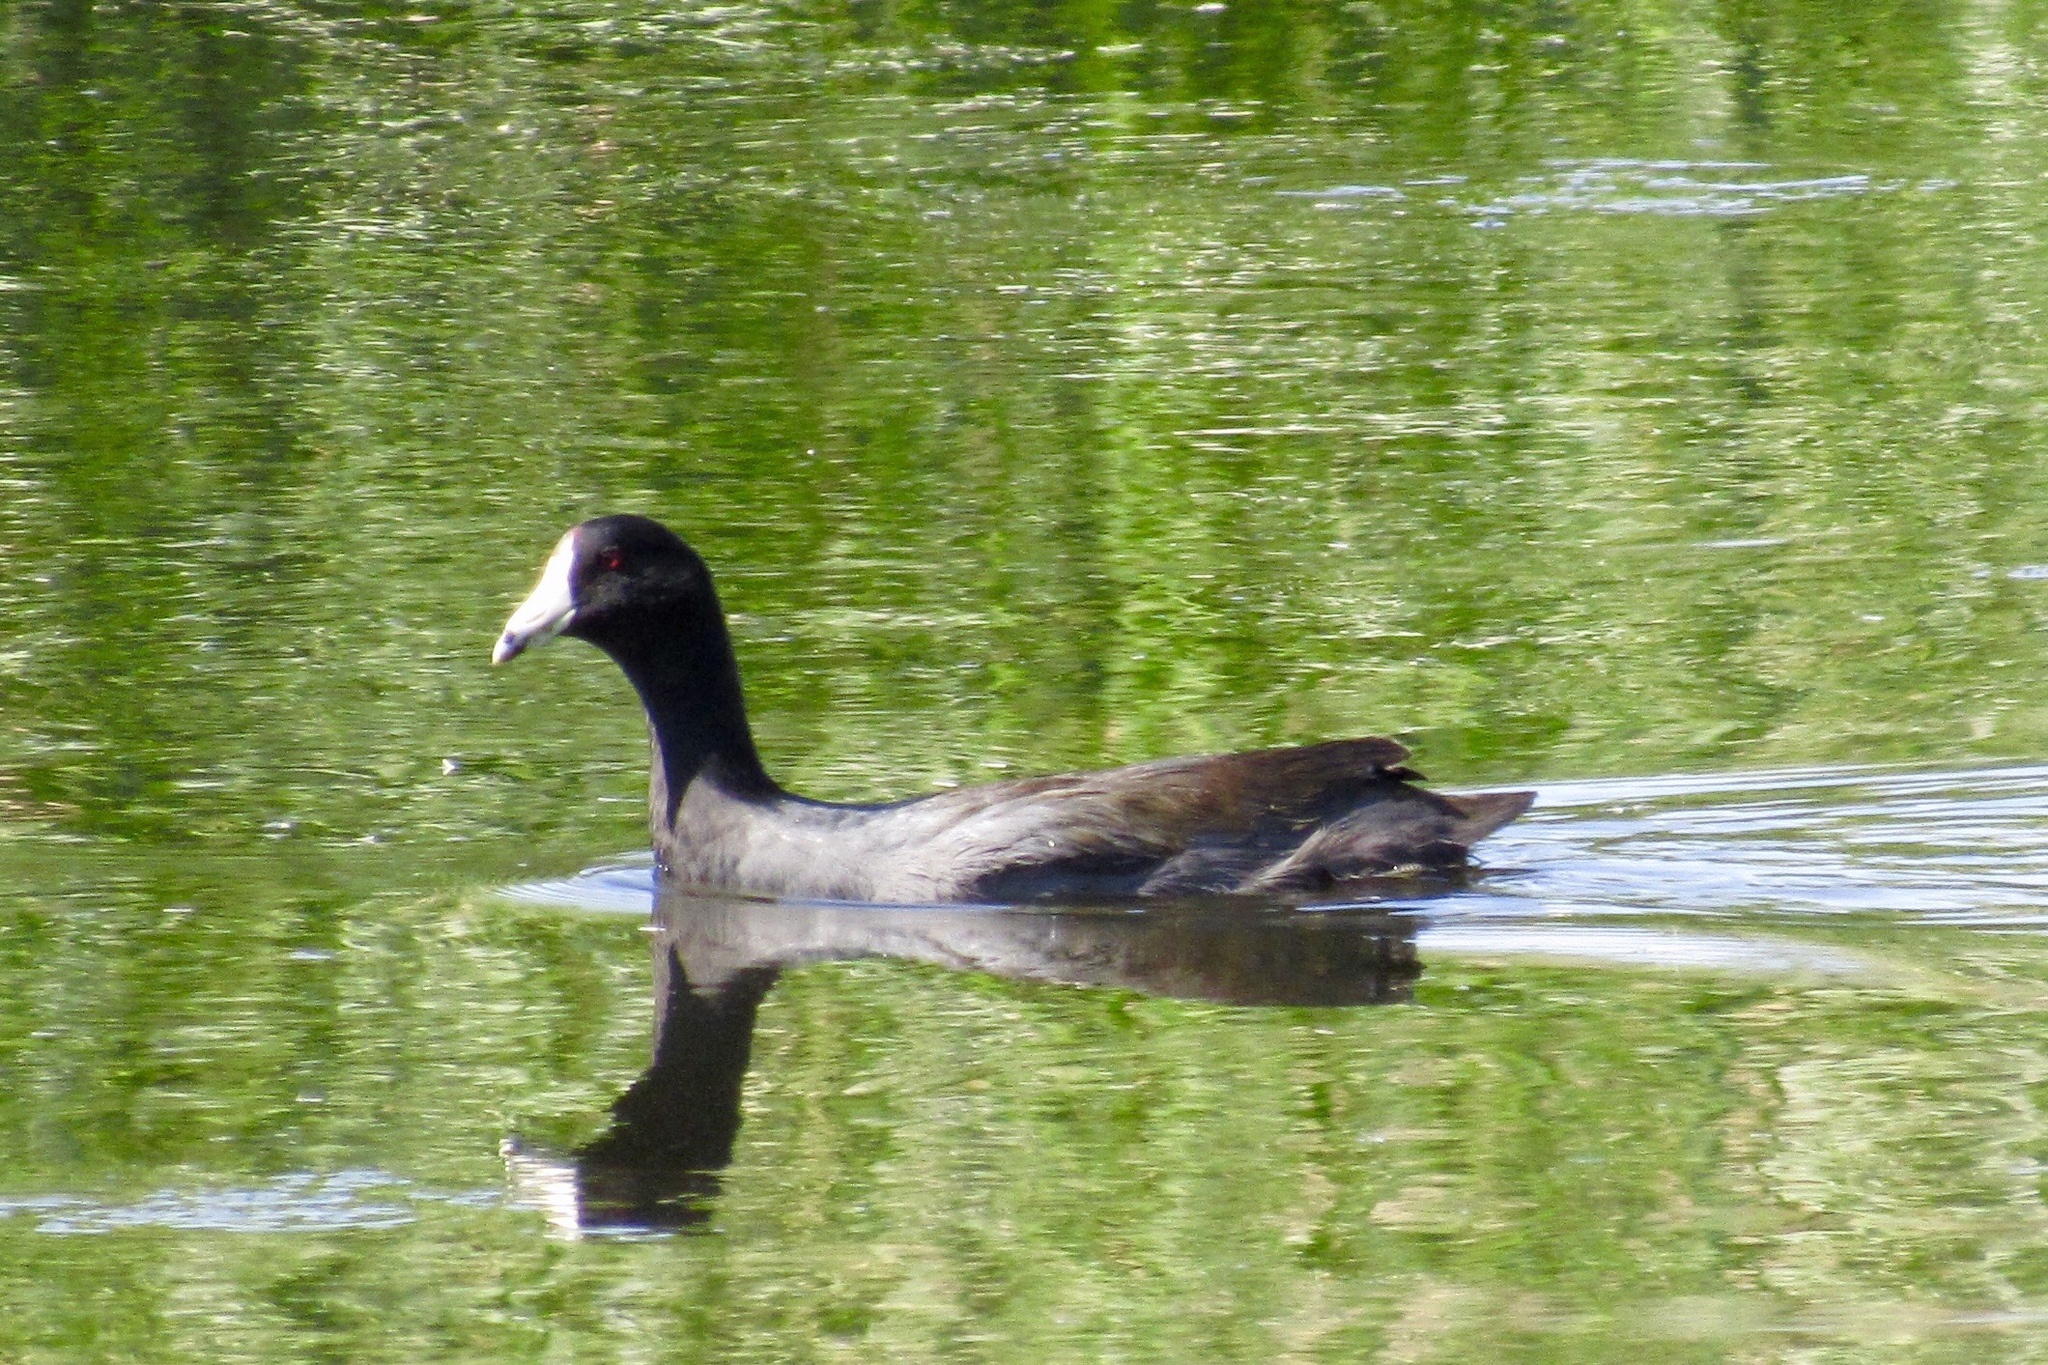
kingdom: Animalia
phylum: Chordata
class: Aves
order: Gruiformes
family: Rallidae
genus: Fulica
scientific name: Fulica americana
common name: American coot
